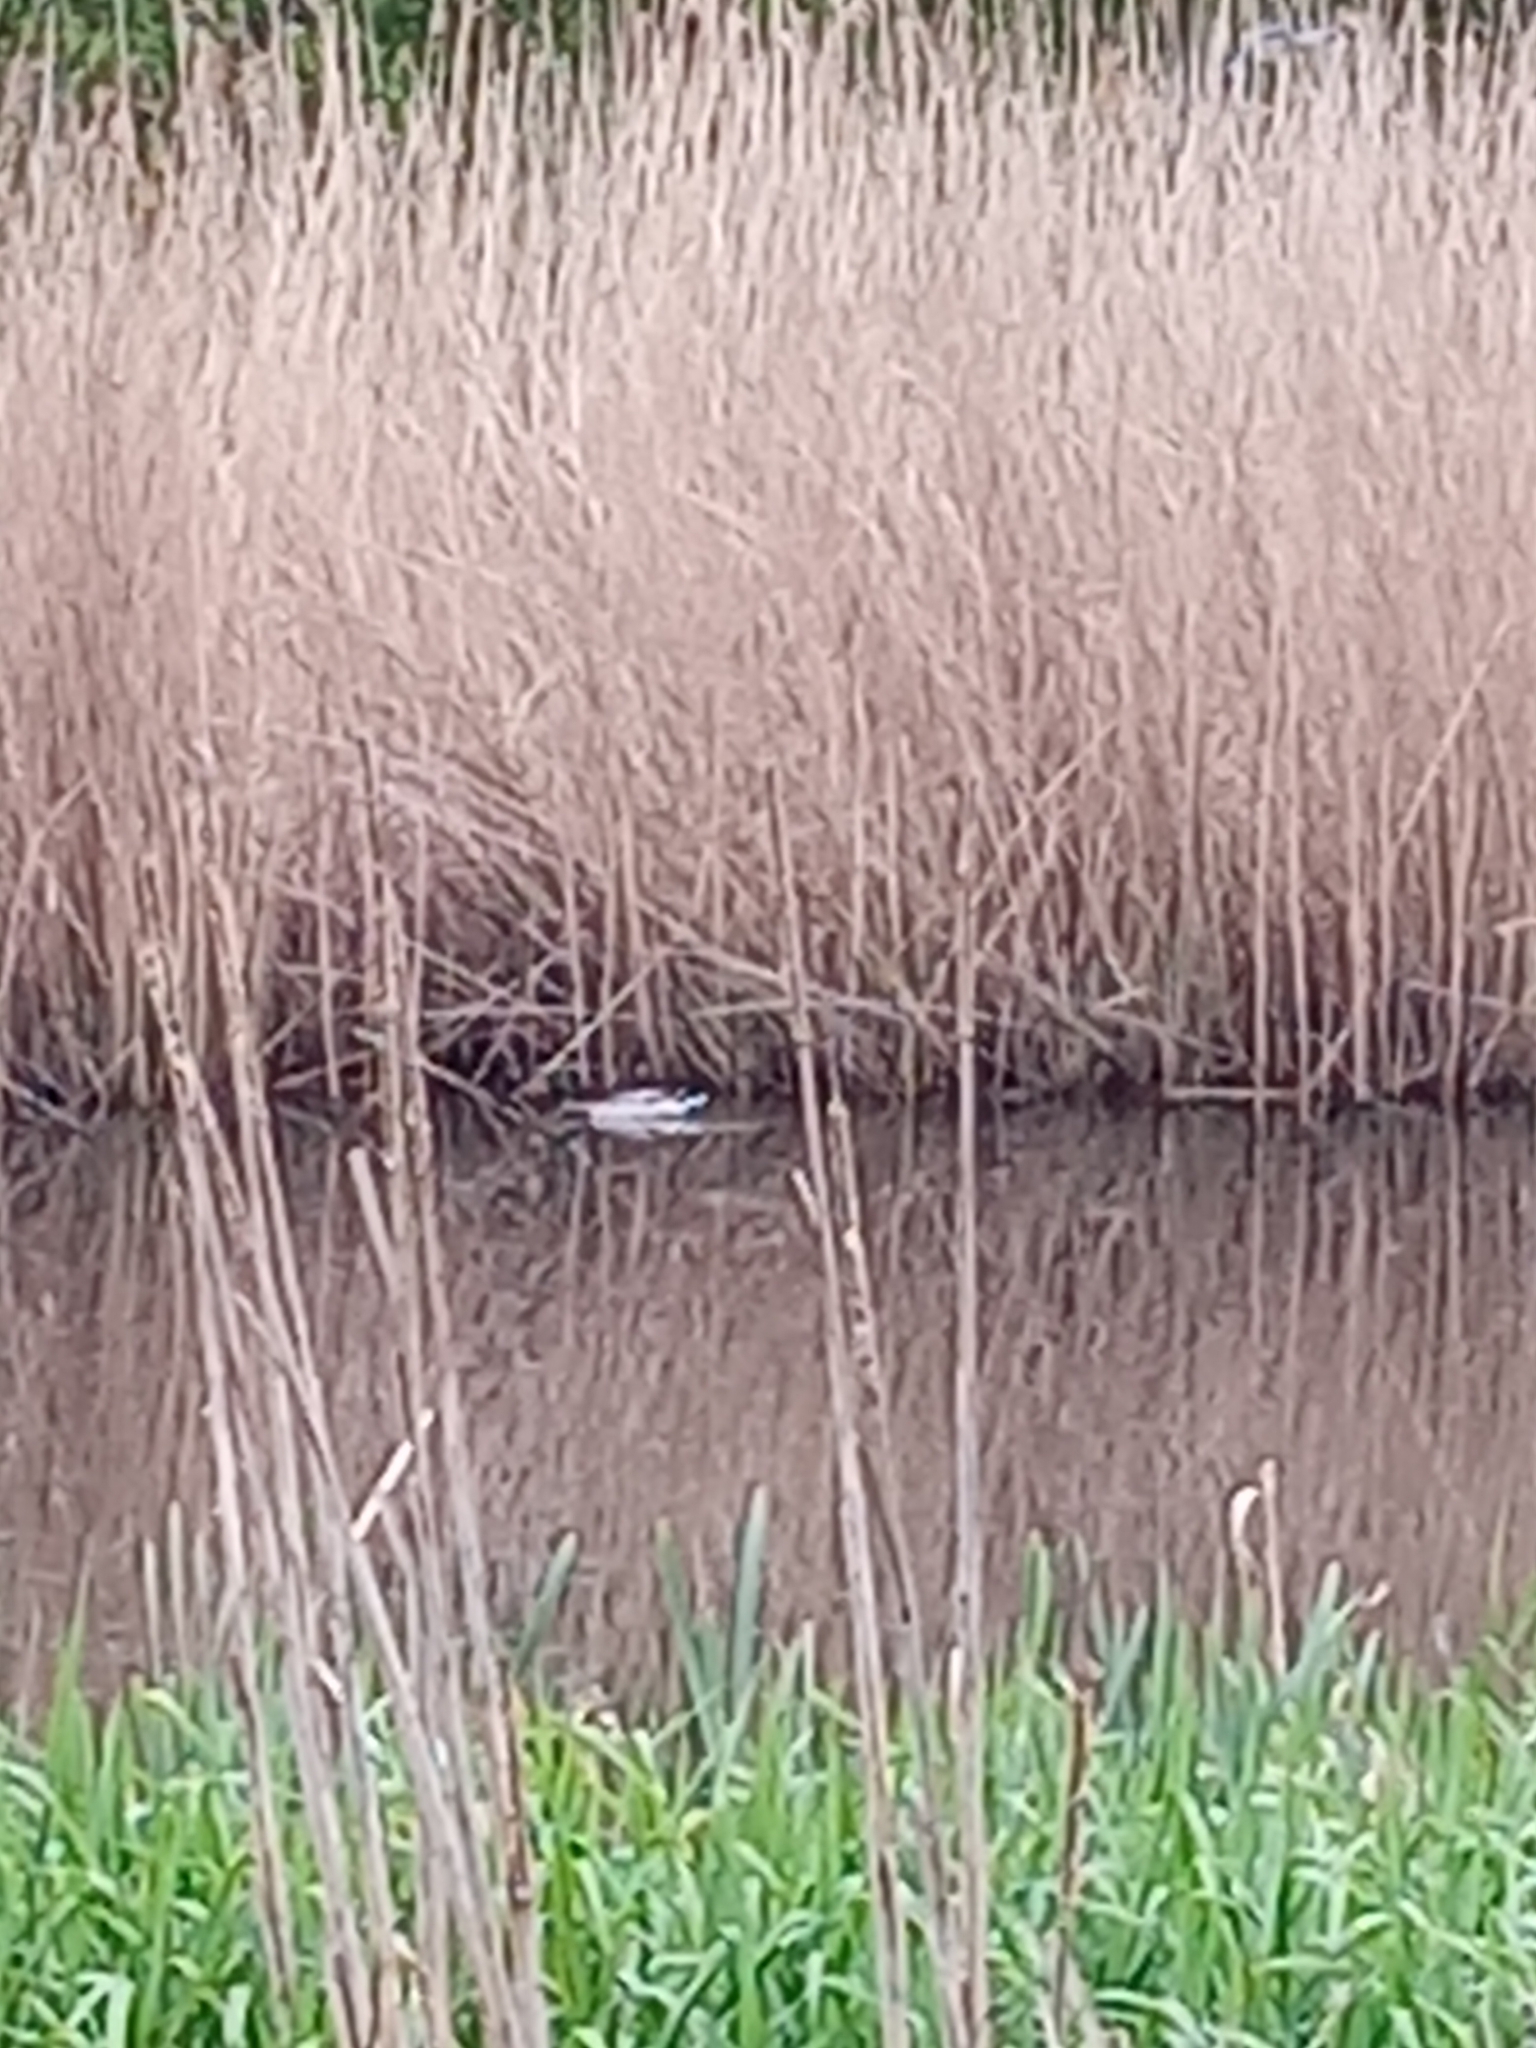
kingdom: Animalia
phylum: Chordata
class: Aves
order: Anseriformes
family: Anatidae
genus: Anas
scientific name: Anas platyrhynchos
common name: Mallard
